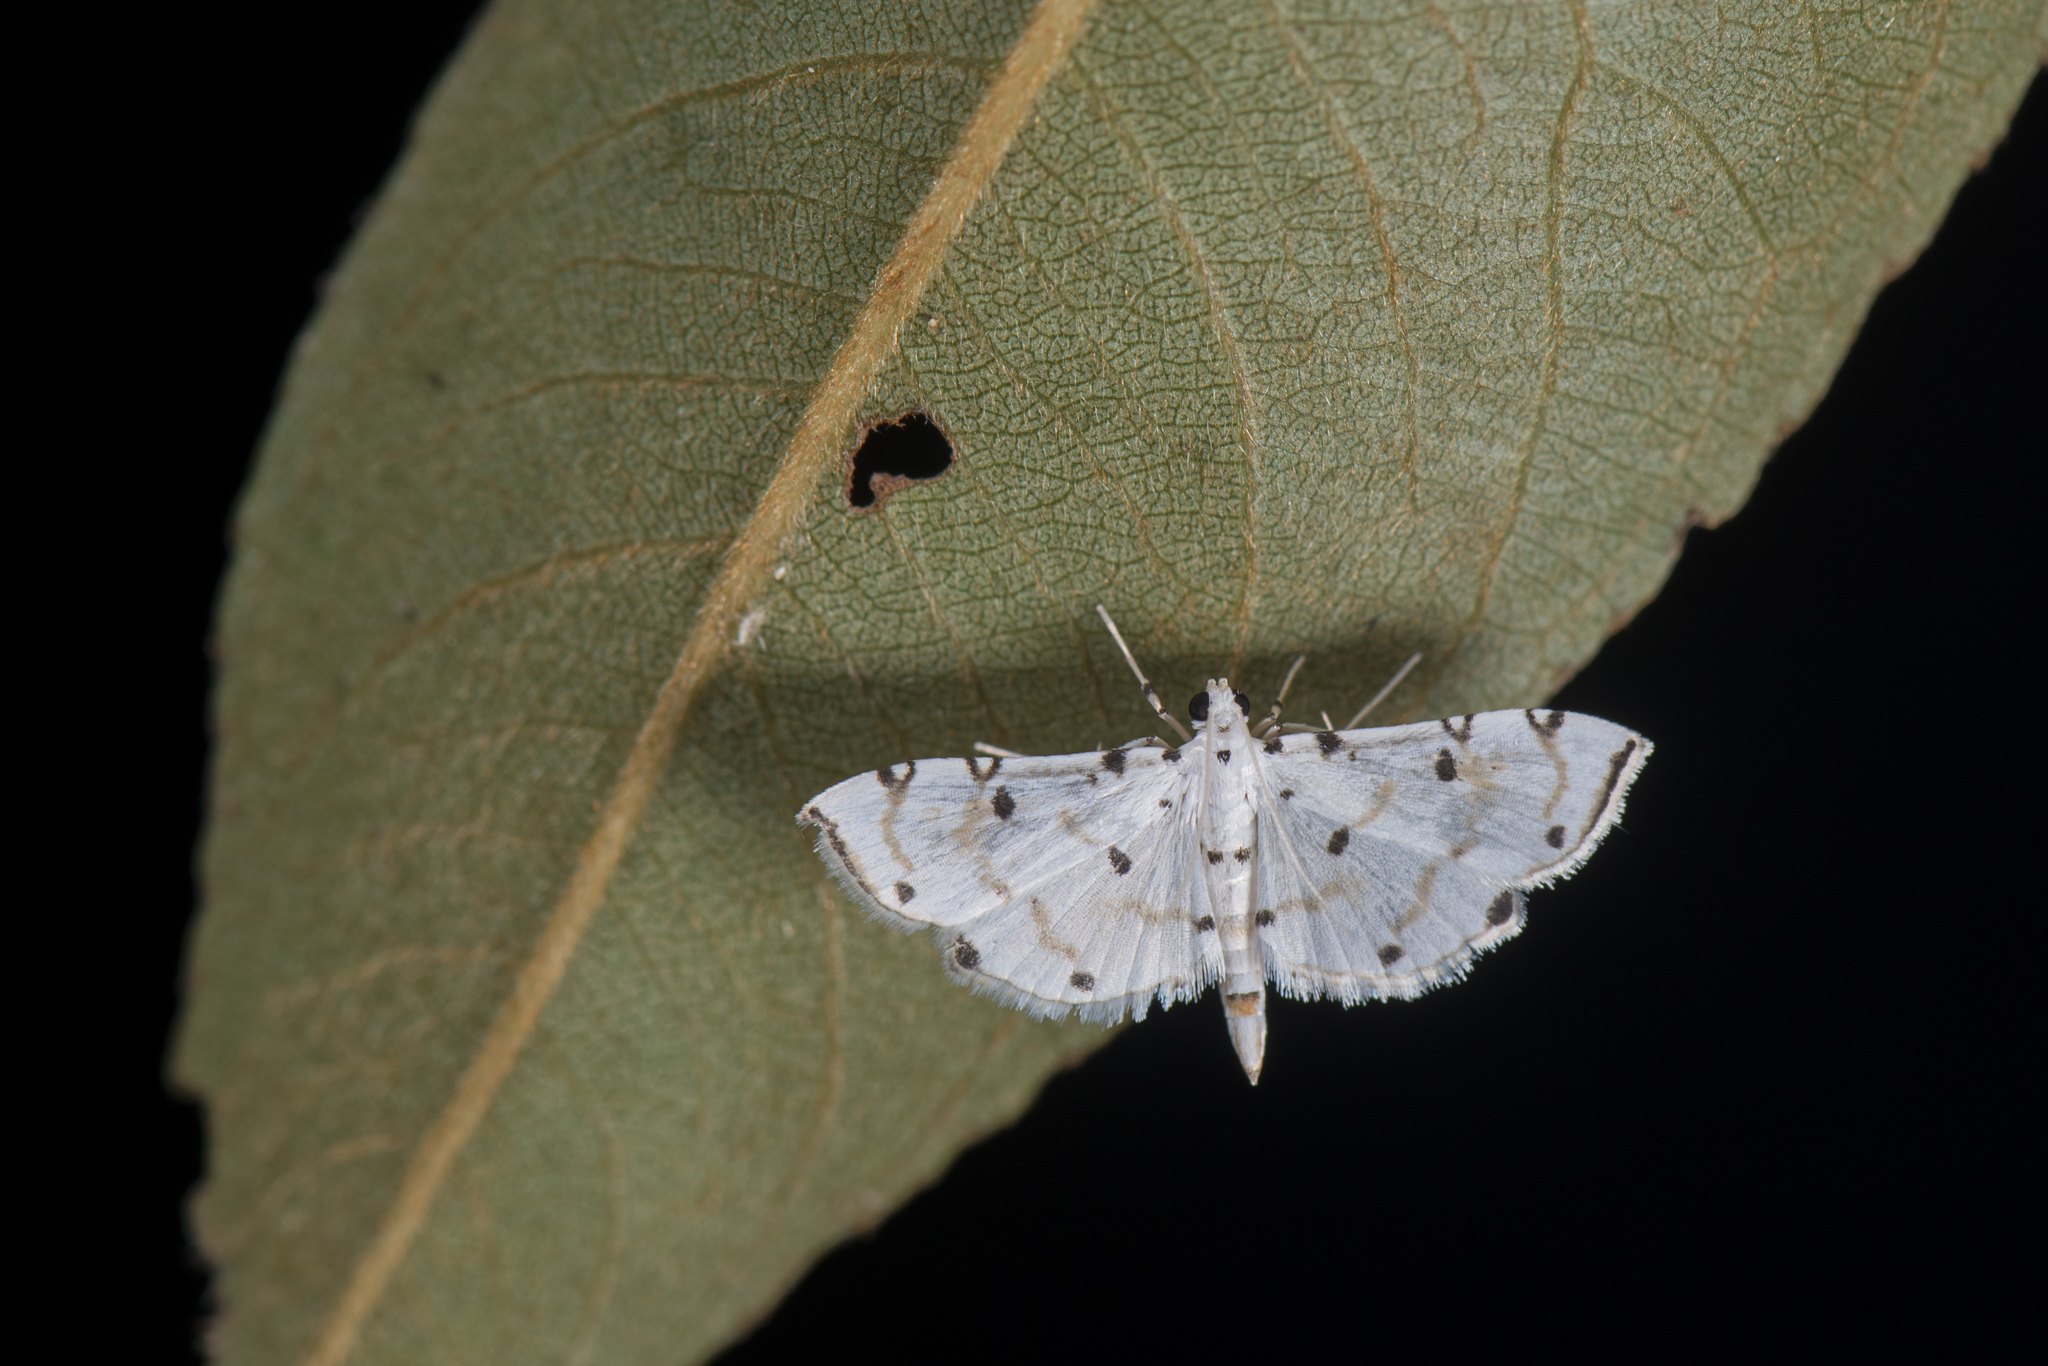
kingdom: Animalia
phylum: Arthropoda
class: Insecta
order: Lepidoptera
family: Crambidae
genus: Pycnarmon
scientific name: Pycnarmon meritalis
